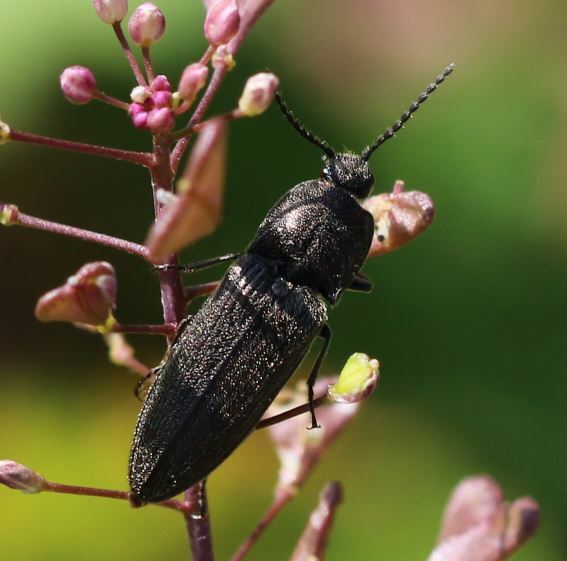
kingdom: Animalia
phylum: Arthropoda
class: Insecta
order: Coleoptera
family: Elateridae
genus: Cidnopus
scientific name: Cidnopus pilosus
